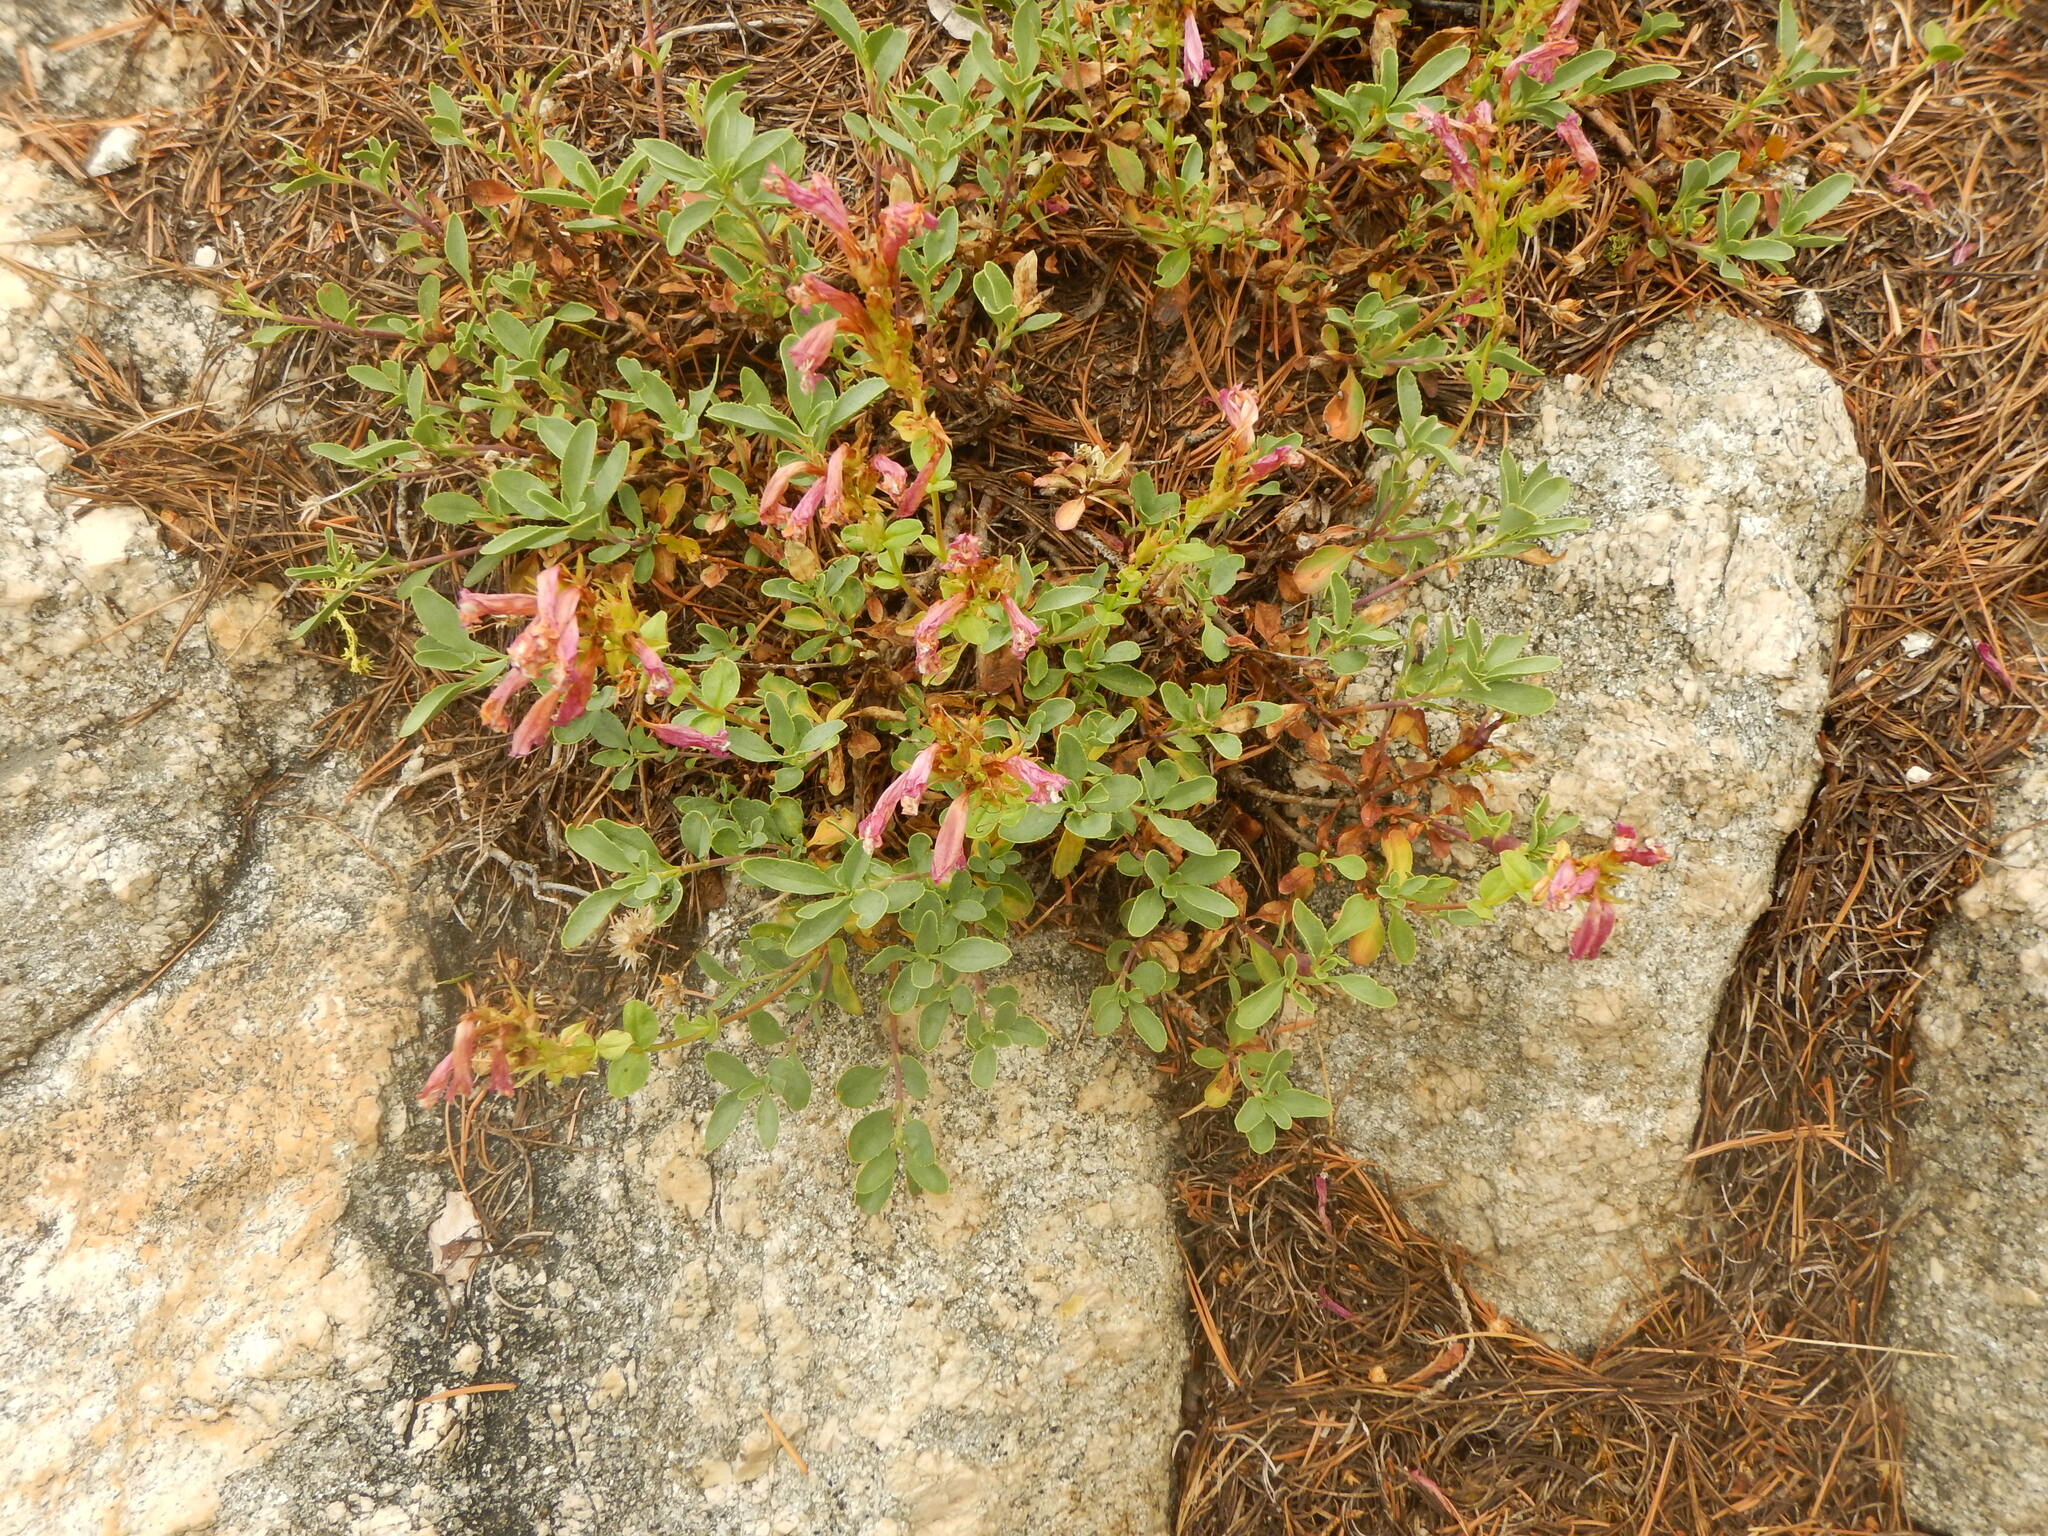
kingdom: Plantae
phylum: Tracheophyta
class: Magnoliopsida
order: Lamiales
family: Plantaginaceae
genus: Penstemon
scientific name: Penstemon newberryi
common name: Mountain-pride
